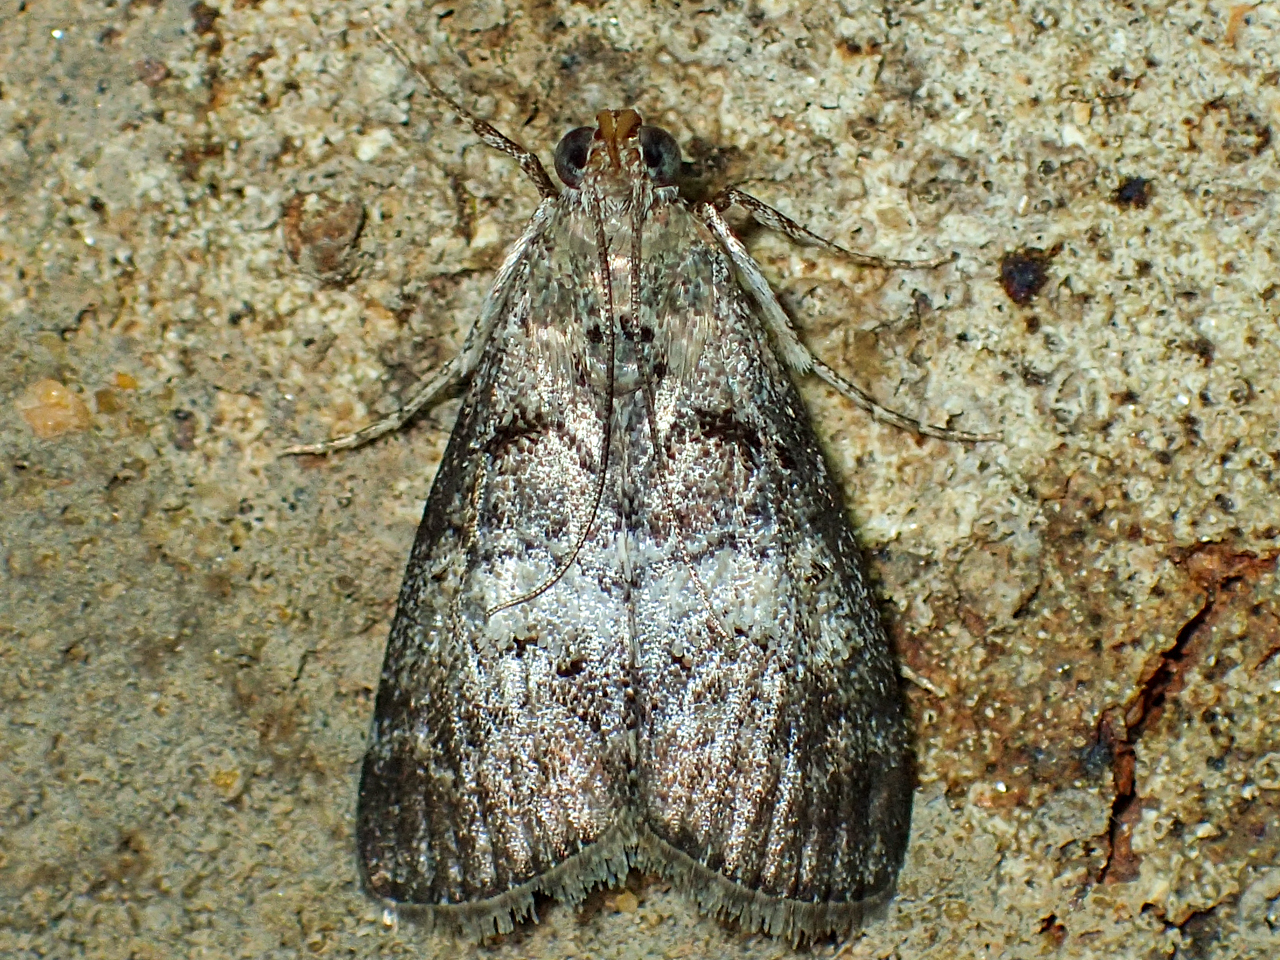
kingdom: Animalia
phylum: Arthropoda
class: Insecta
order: Lepidoptera
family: Pyralidae
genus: Pococera
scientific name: Pococera asperatella
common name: Maple webworm moth
